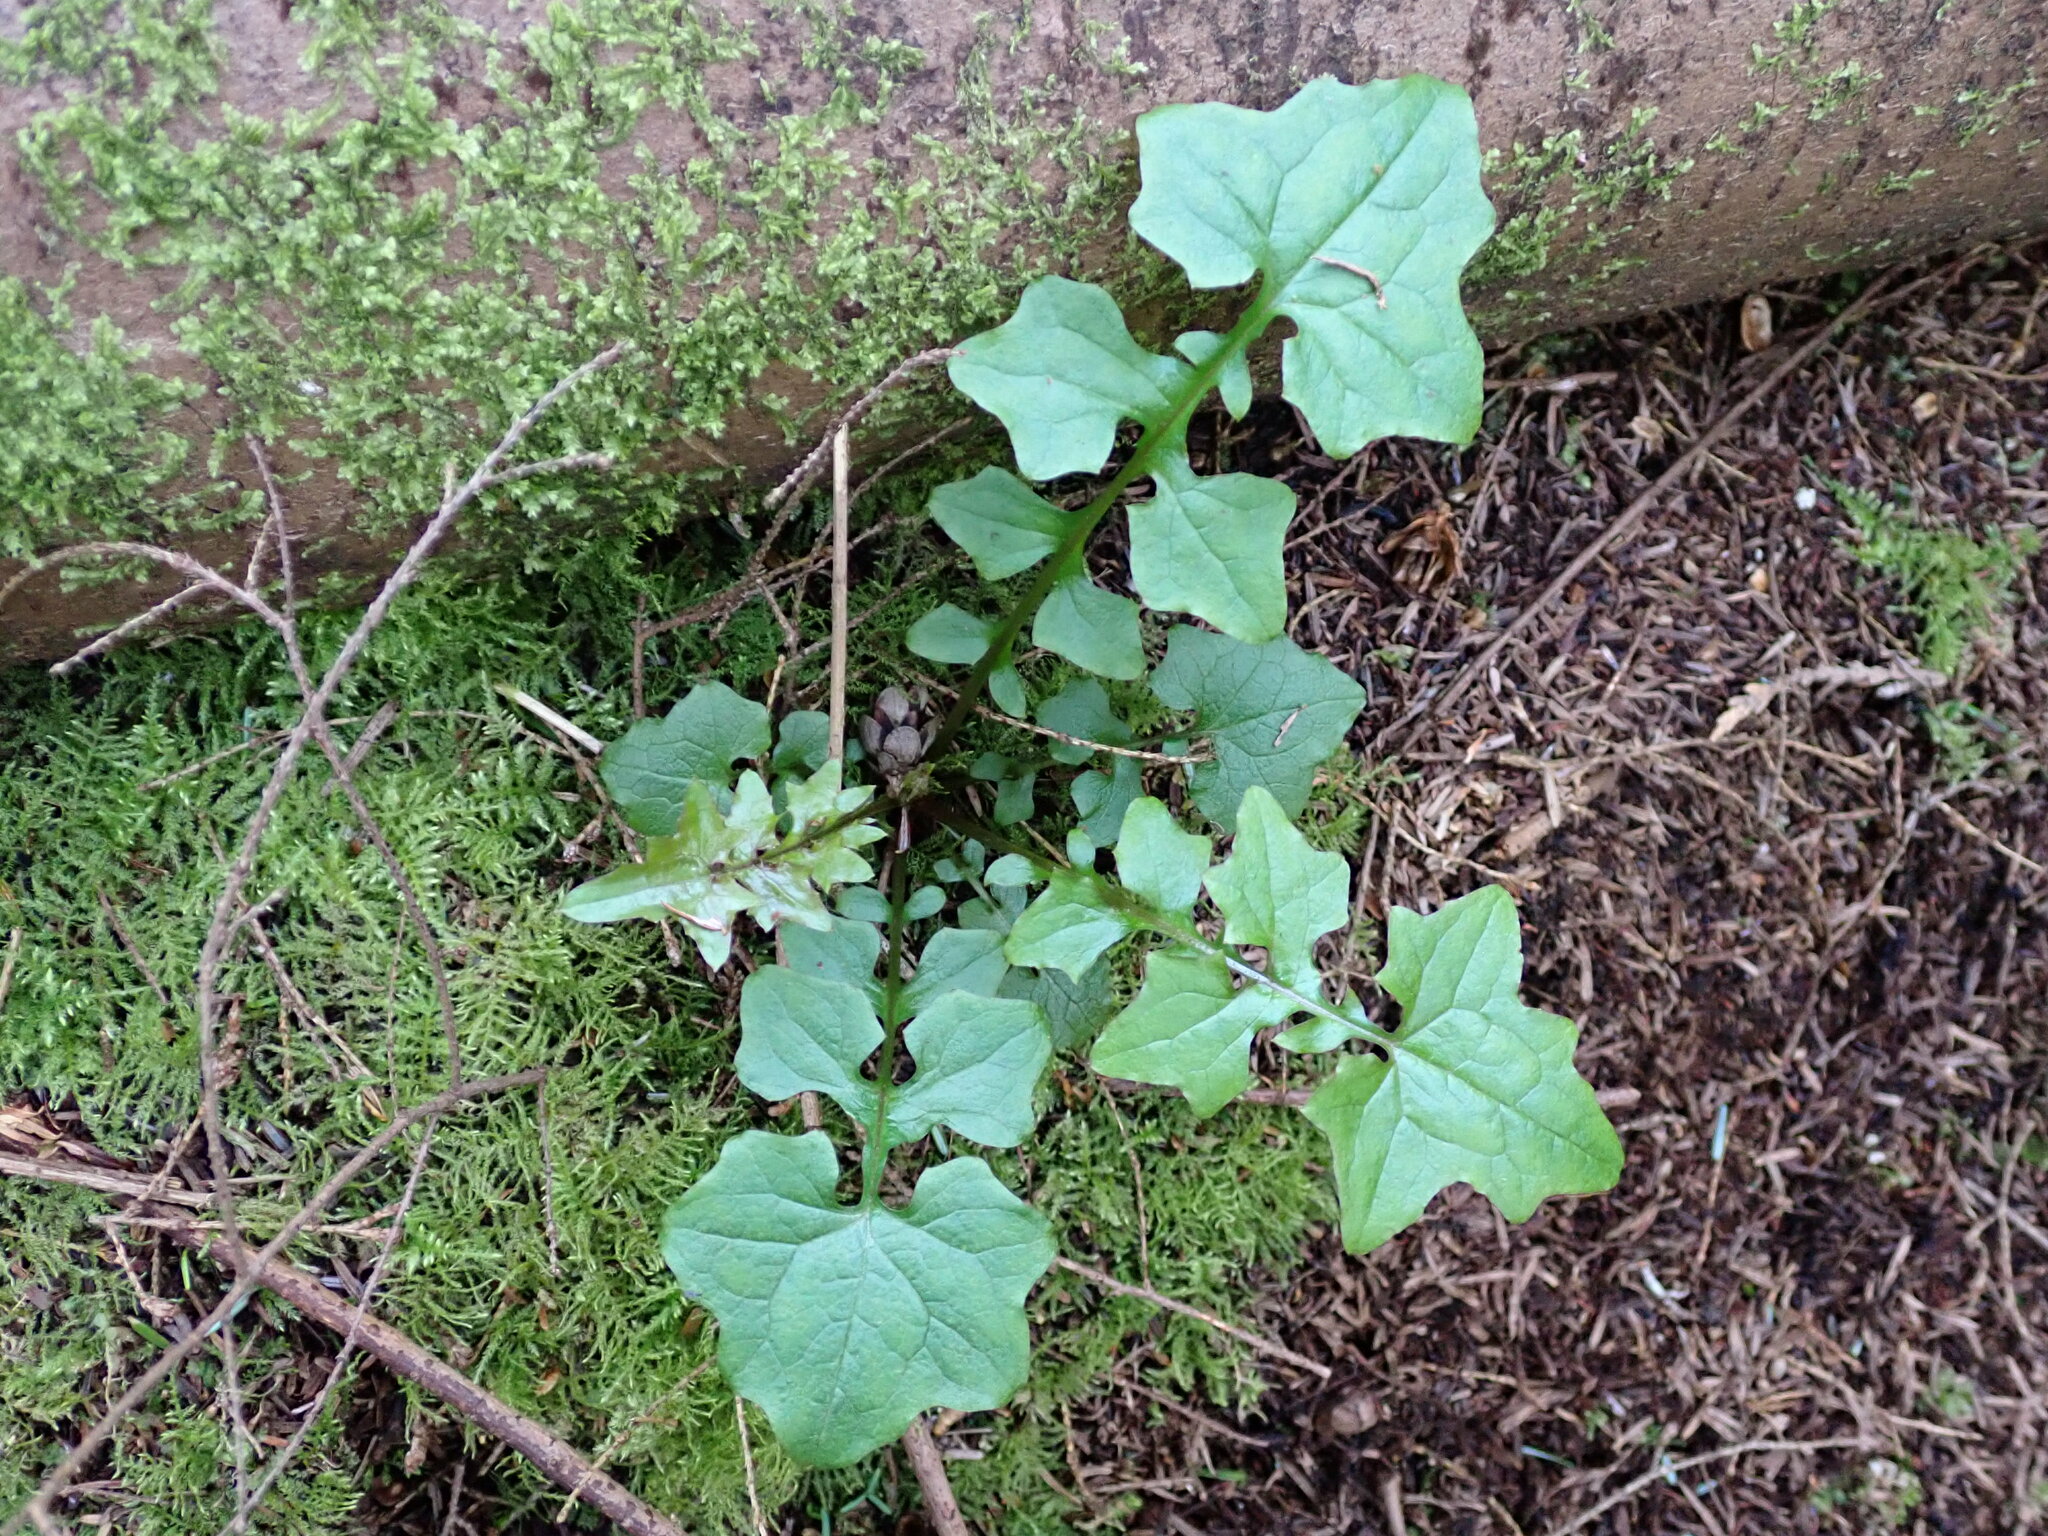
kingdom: Plantae
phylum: Tracheophyta
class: Magnoliopsida
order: Asterales
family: Asteraceae
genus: Mycelis
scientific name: Mycelis muralis
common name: Wall lettuce
